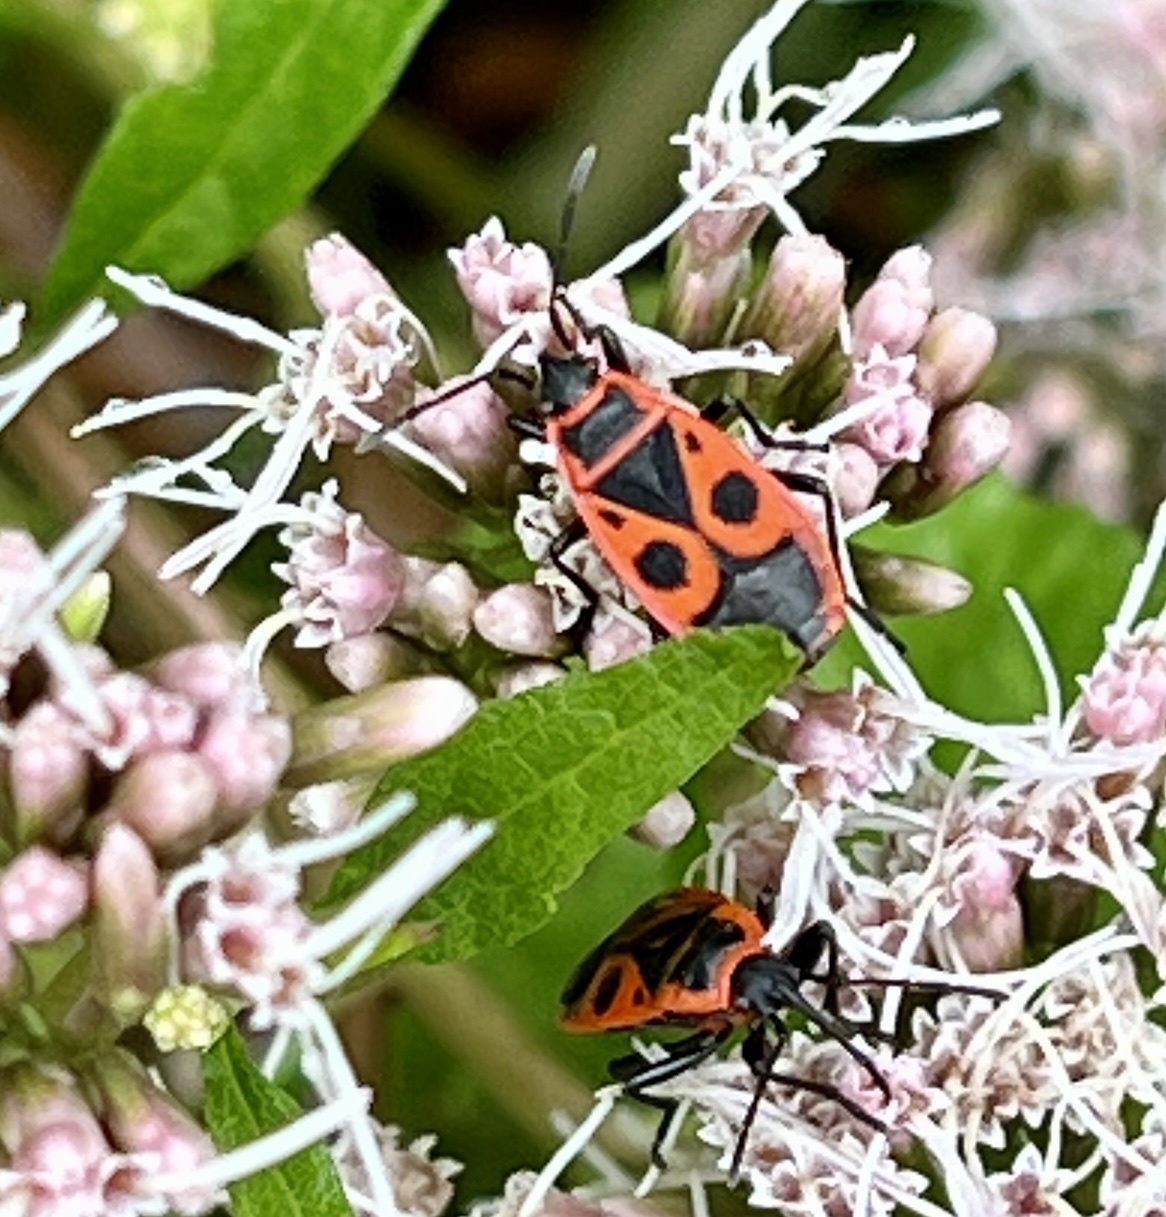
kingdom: Animalia
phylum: Arthropoda
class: Insecta
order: Hemiptera
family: Pyrrhocoridae
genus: Pyrrhocoris
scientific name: Pyrrhocoris apterus
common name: Firebug
